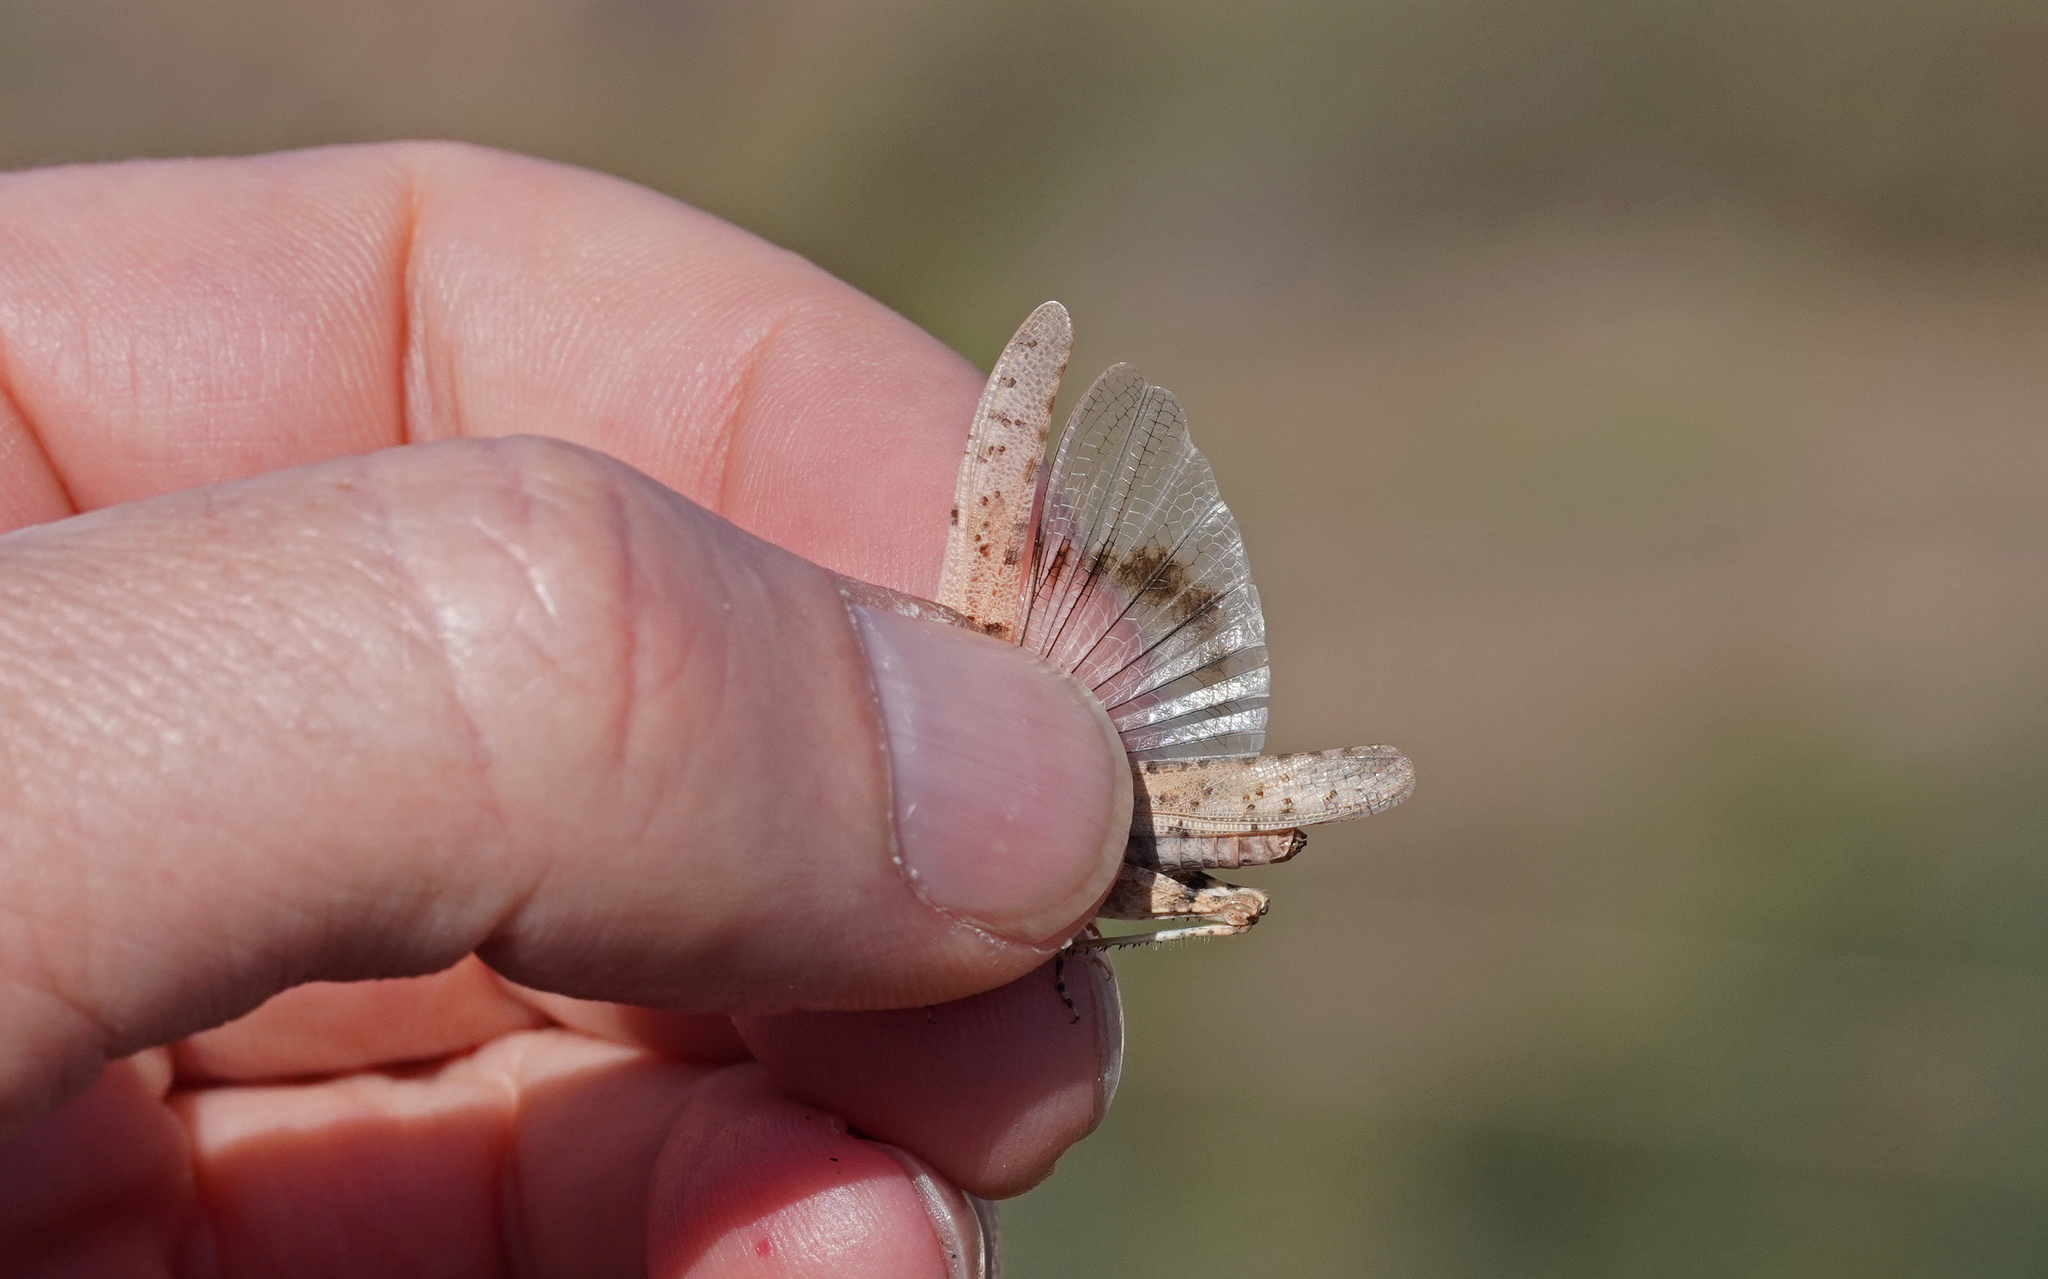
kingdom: Animalia
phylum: Arthropoda
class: Insecta
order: Orthoptera
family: Acrididae
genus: Sphingonotus
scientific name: Sphingonotus sublaevis
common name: Red sand grasshopper
